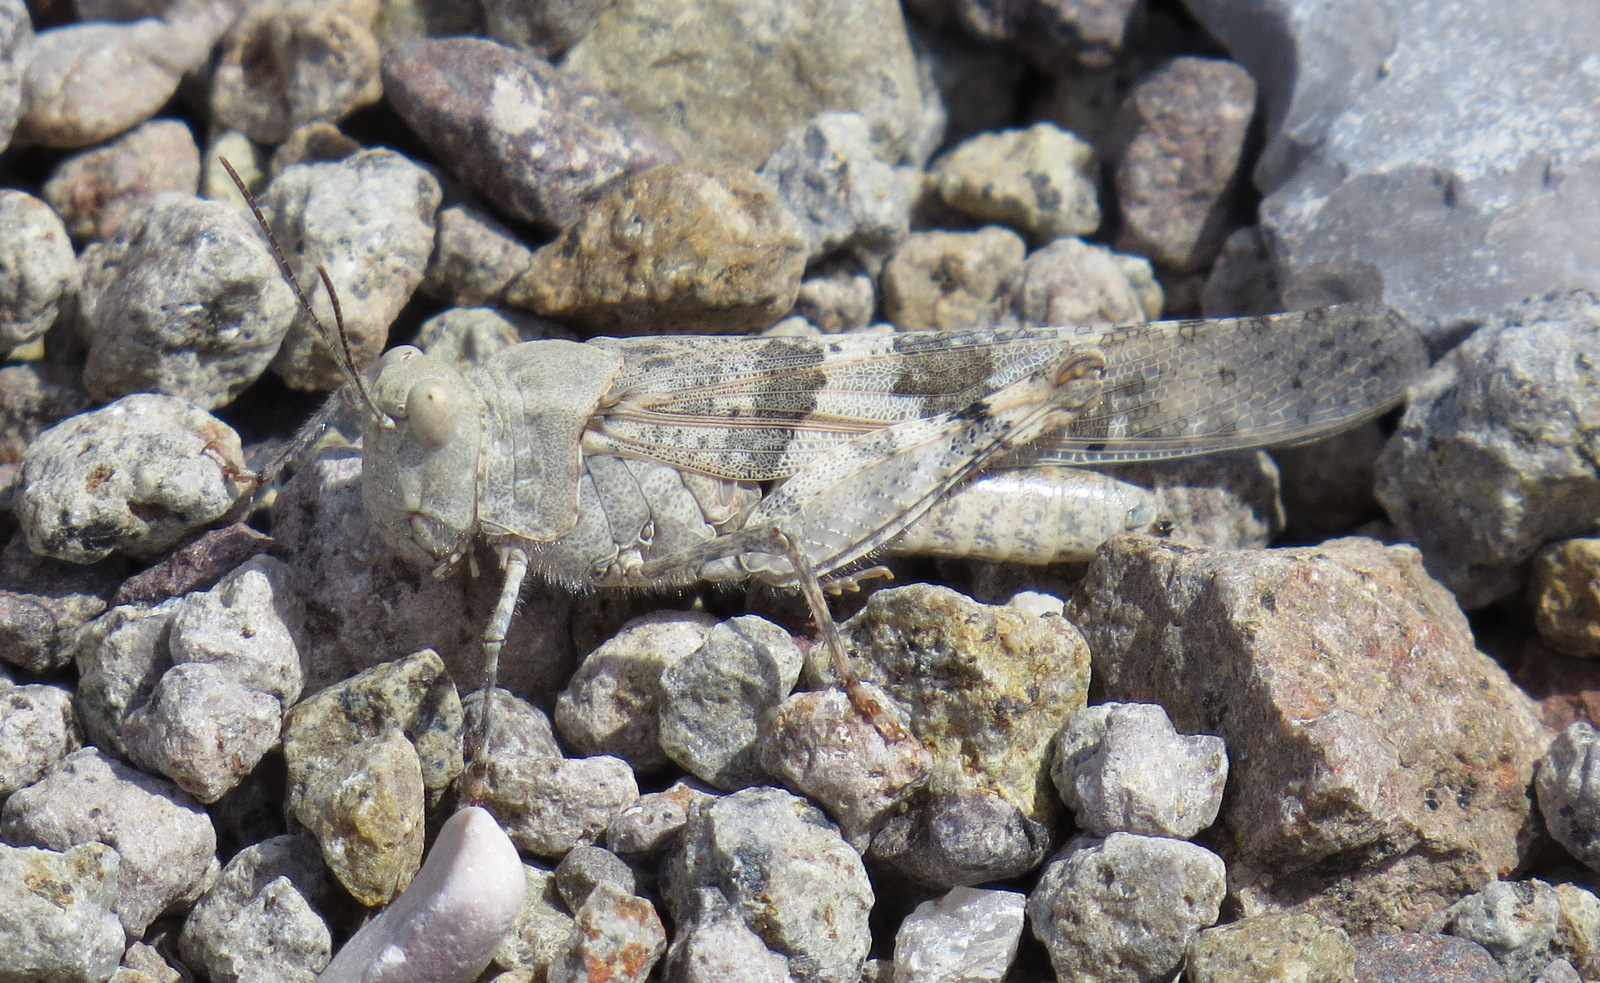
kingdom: Animalia
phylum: Arthropoda
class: Insecta
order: Orthoptera
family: Acrididae
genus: Trimerotropis
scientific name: Trimerotropis pallidipennis
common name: Pallid-winged grasshopper
